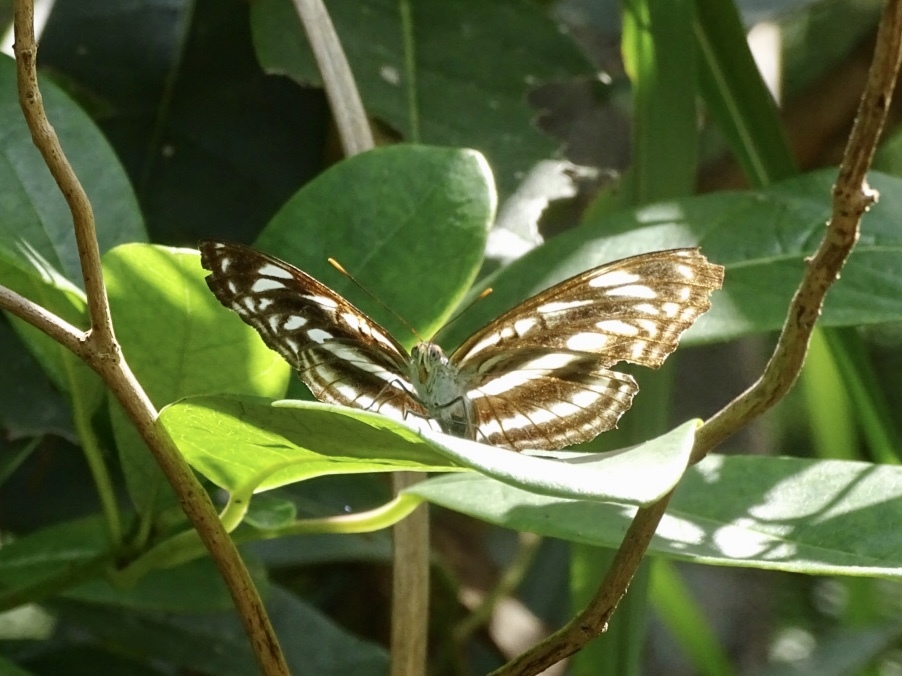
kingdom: Animalia
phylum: Arthropoda
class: Insecta
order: Lepidoptera
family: Nymphalidae
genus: Parathyma
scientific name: Parathyma selenophora
